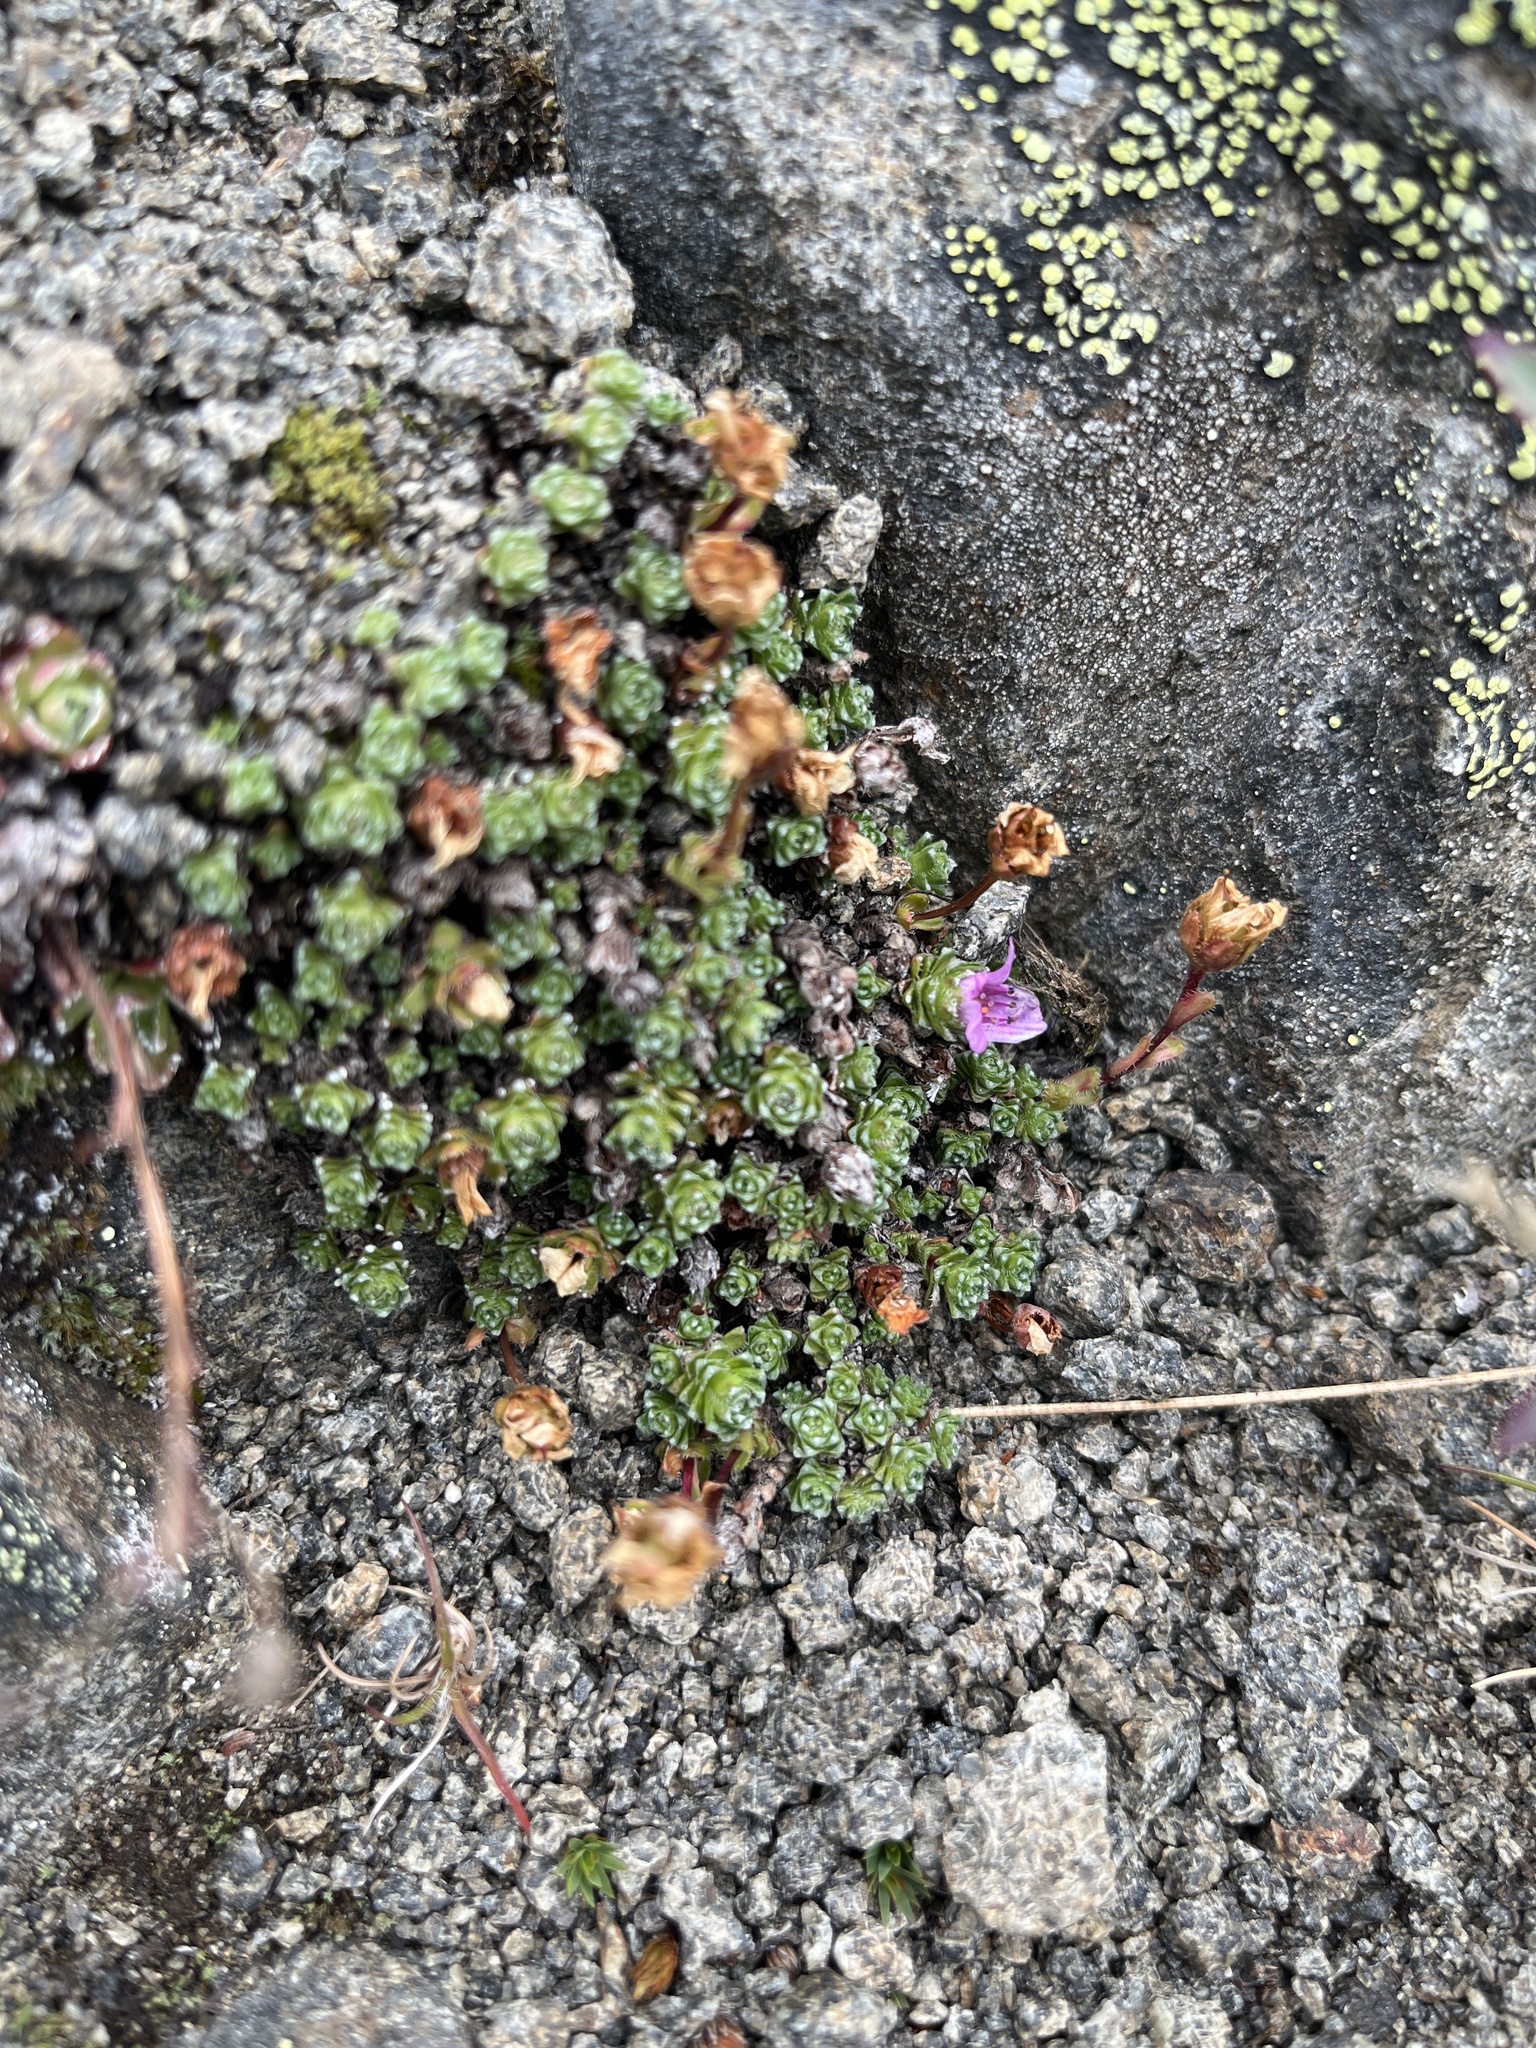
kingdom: Plantae
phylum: Tracheophyta
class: Magnoliopsida
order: Saxifragales
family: Saxifragaceae
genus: Saxifraga
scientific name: Saxifraga oppositifolia
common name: Purple saxifrage
